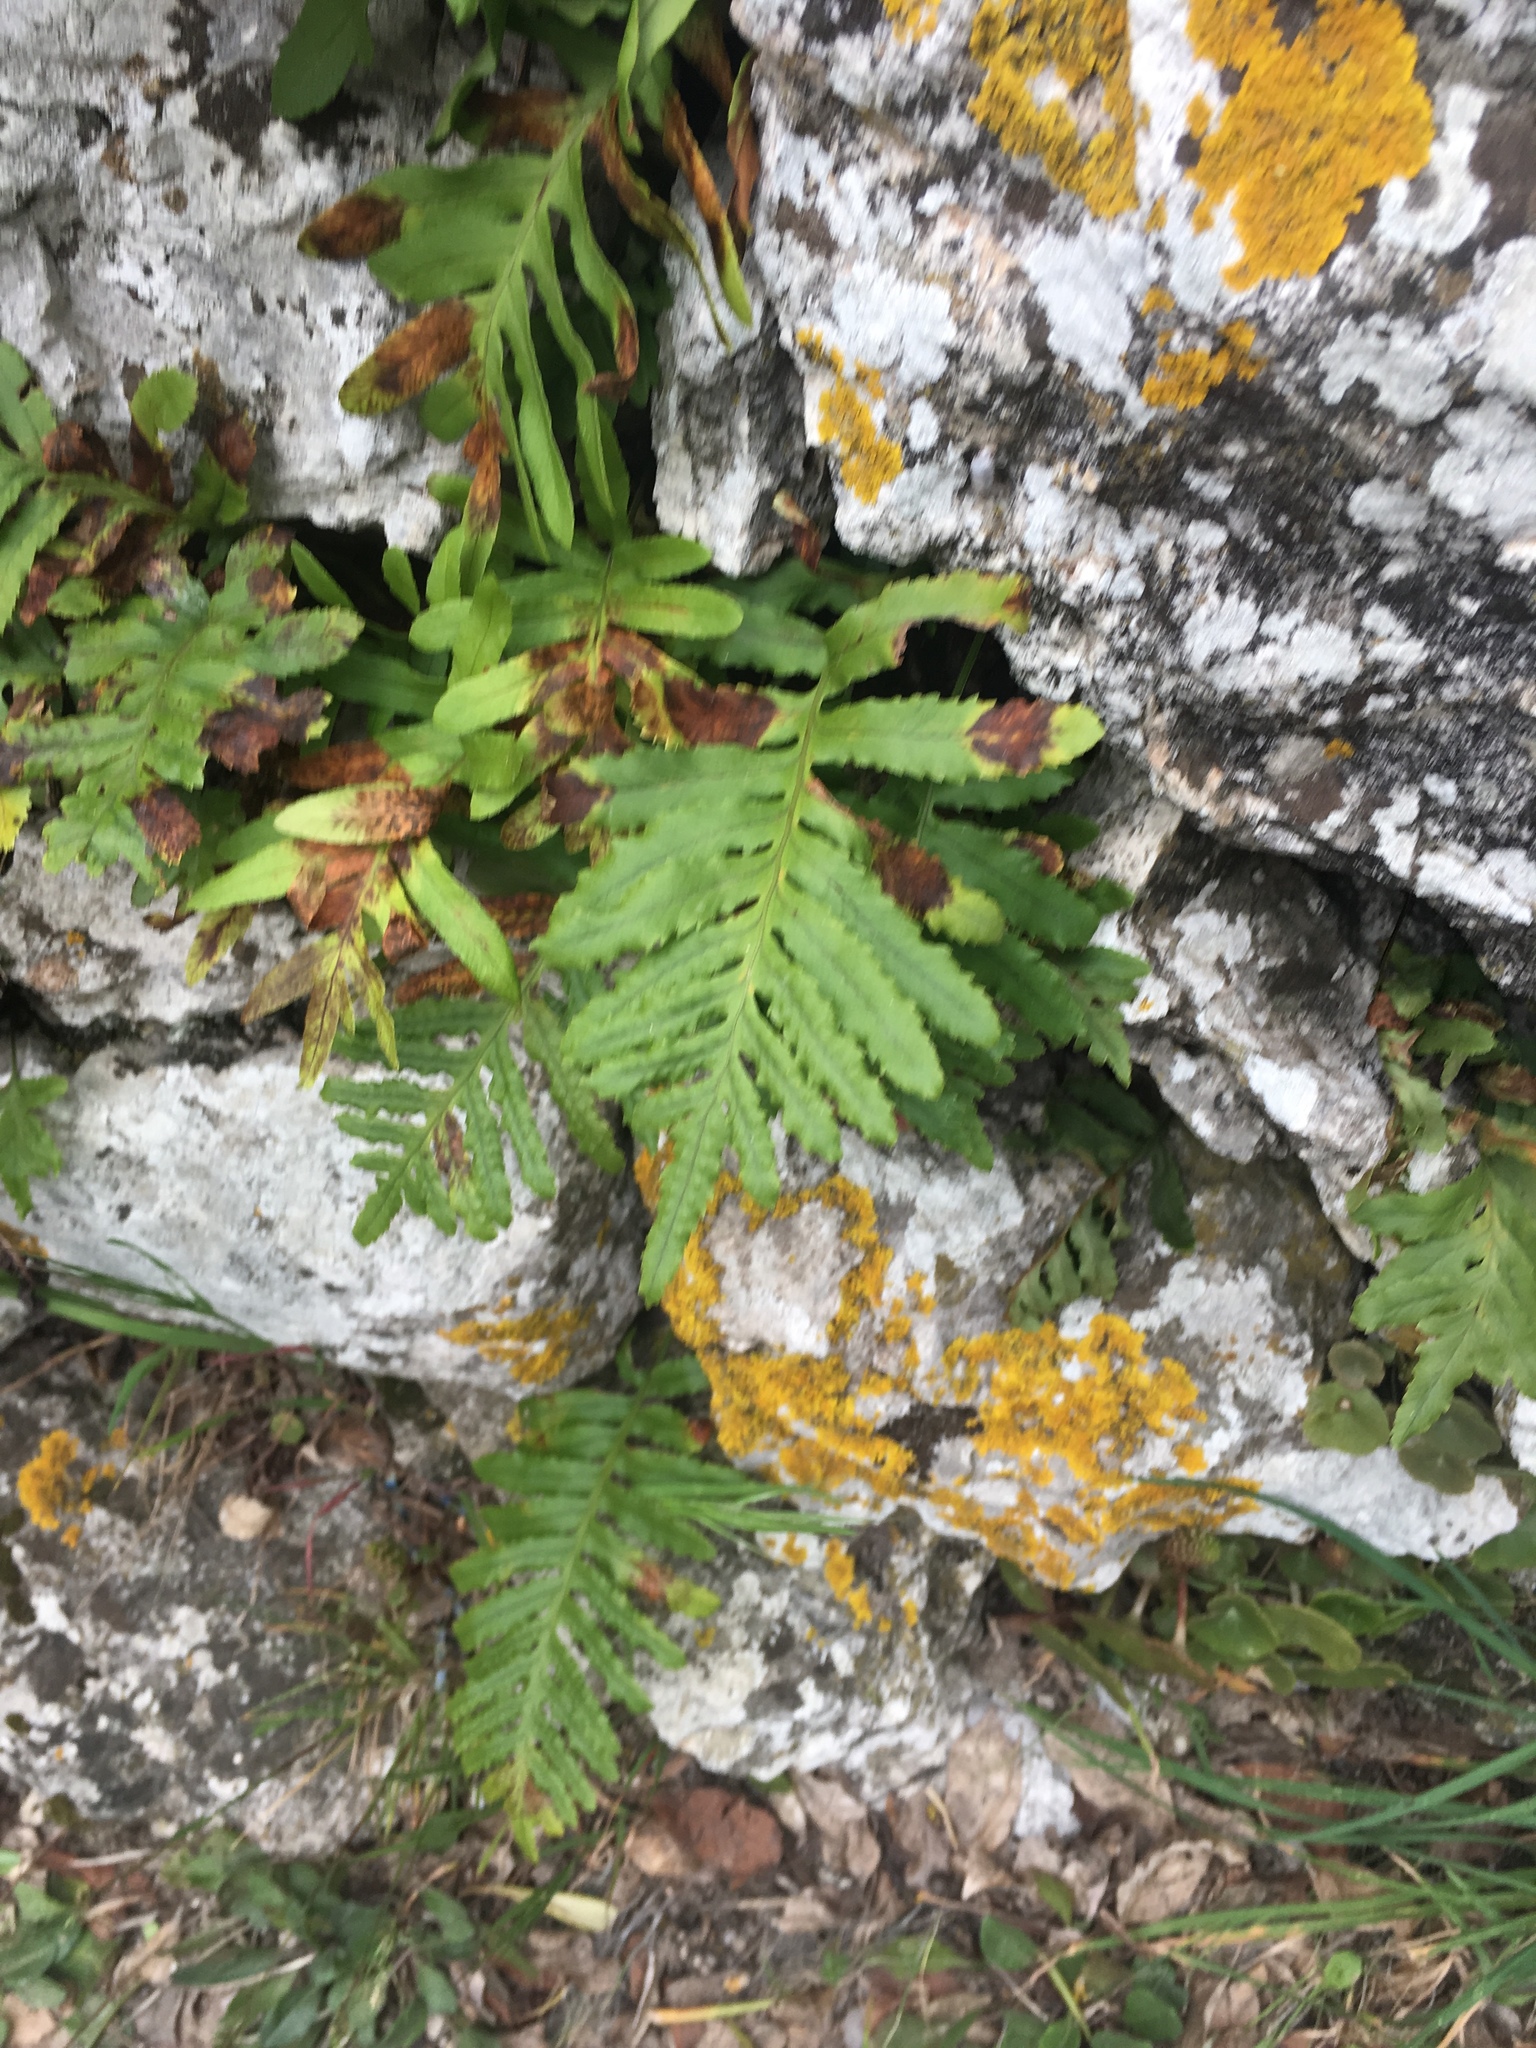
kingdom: Plantae
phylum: Tracheophyta
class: Polypodiopsida
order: Polypodiales
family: Polypodiaceae
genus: Polypodium
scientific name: Polypodium cambricum
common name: Southern polypody
